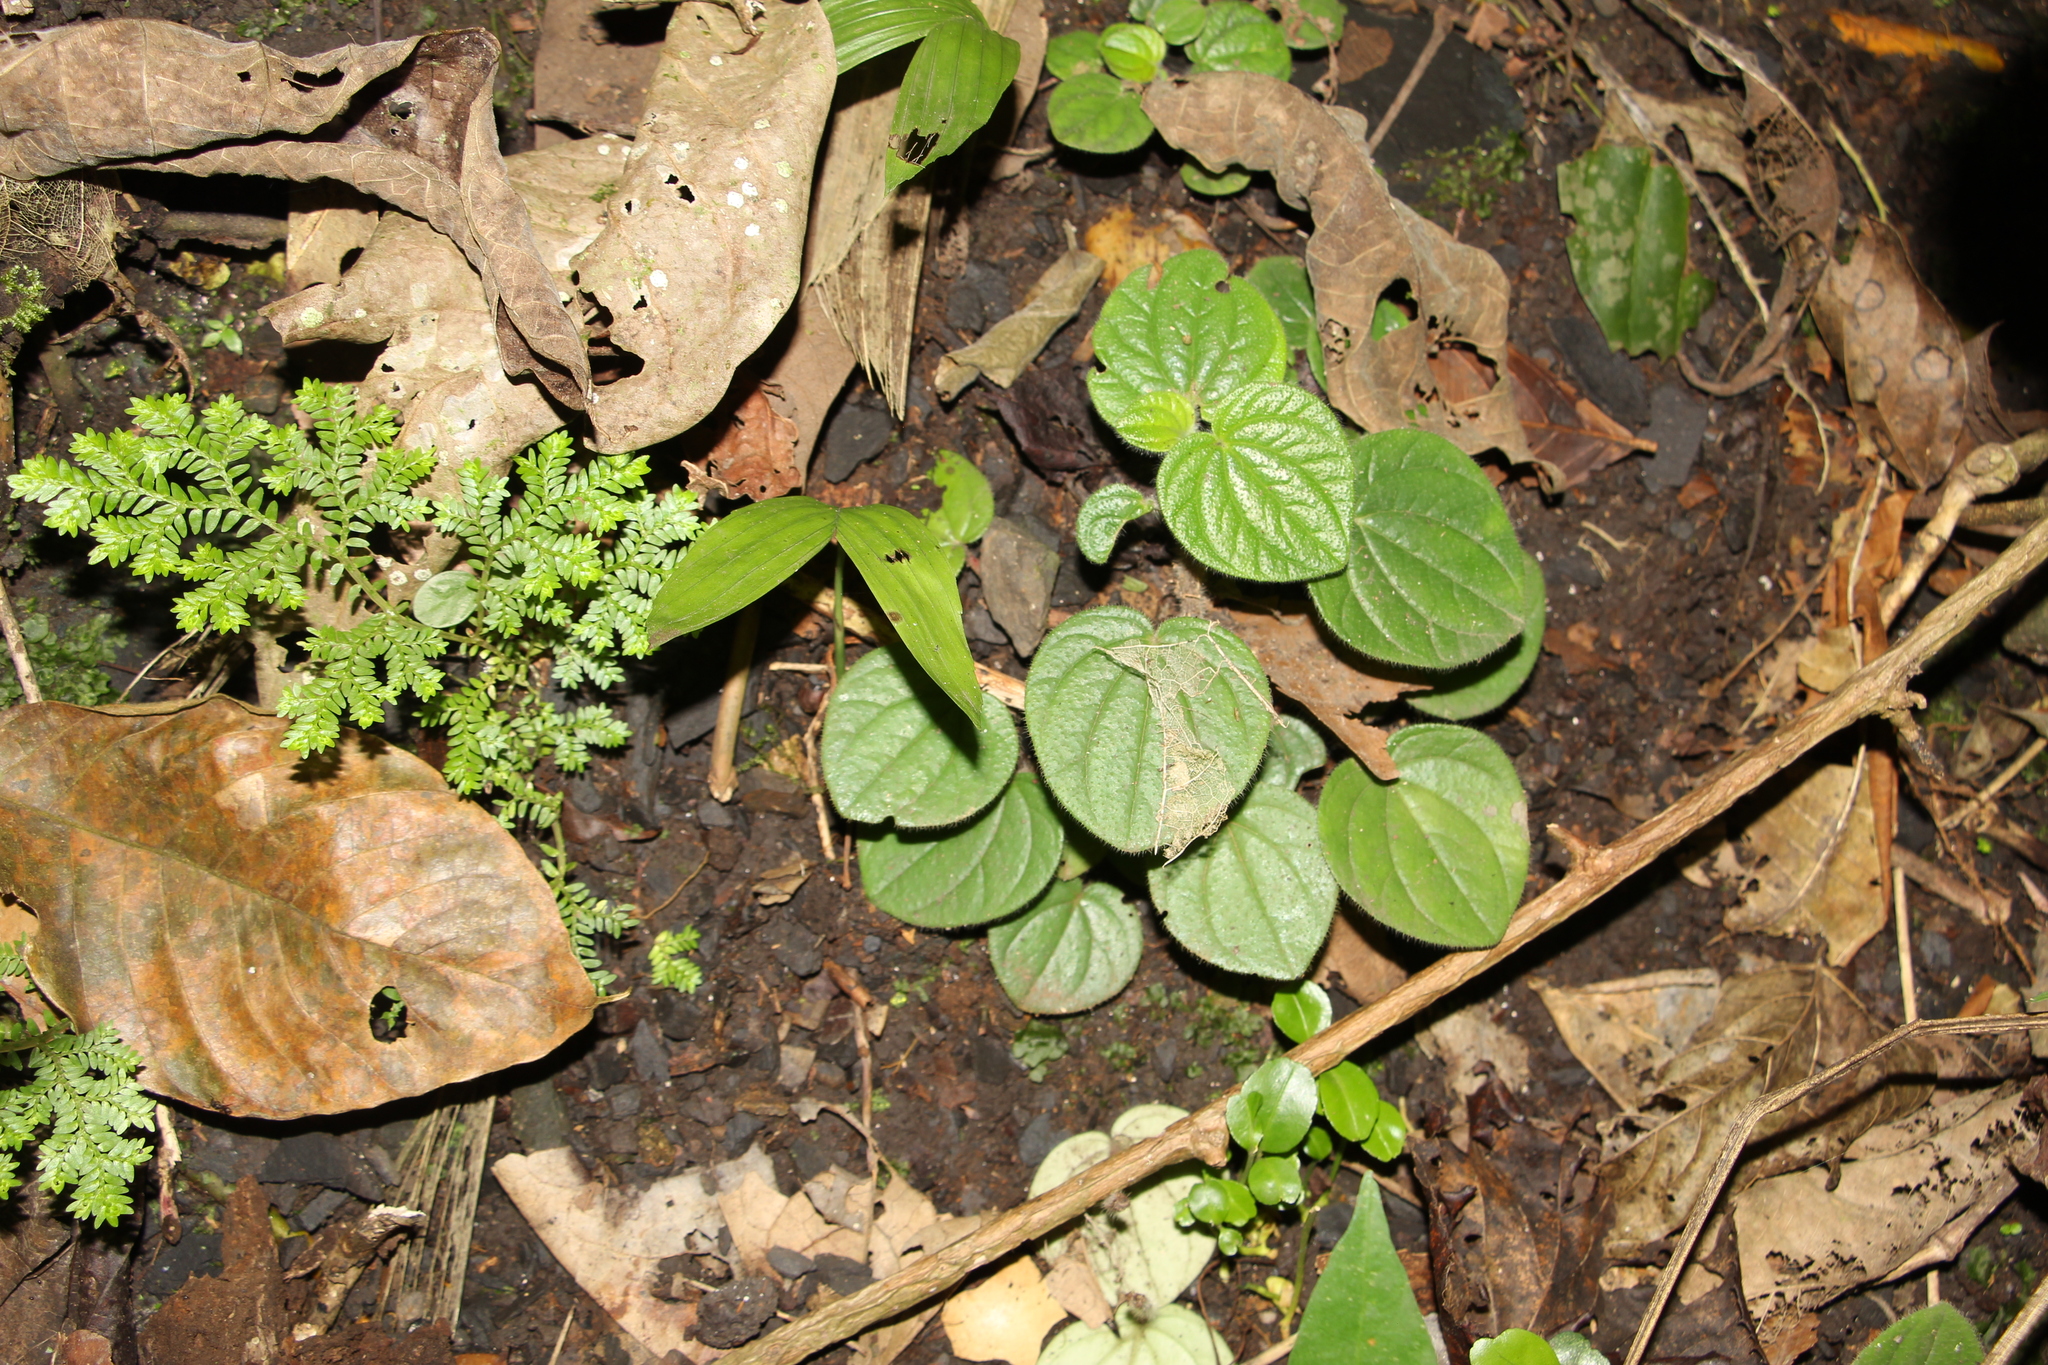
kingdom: Plantae
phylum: Tracheophyta
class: Magnoliopsida
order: Piperales
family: Piperaceae
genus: Peperomia
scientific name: Peperomia pubirhachis
